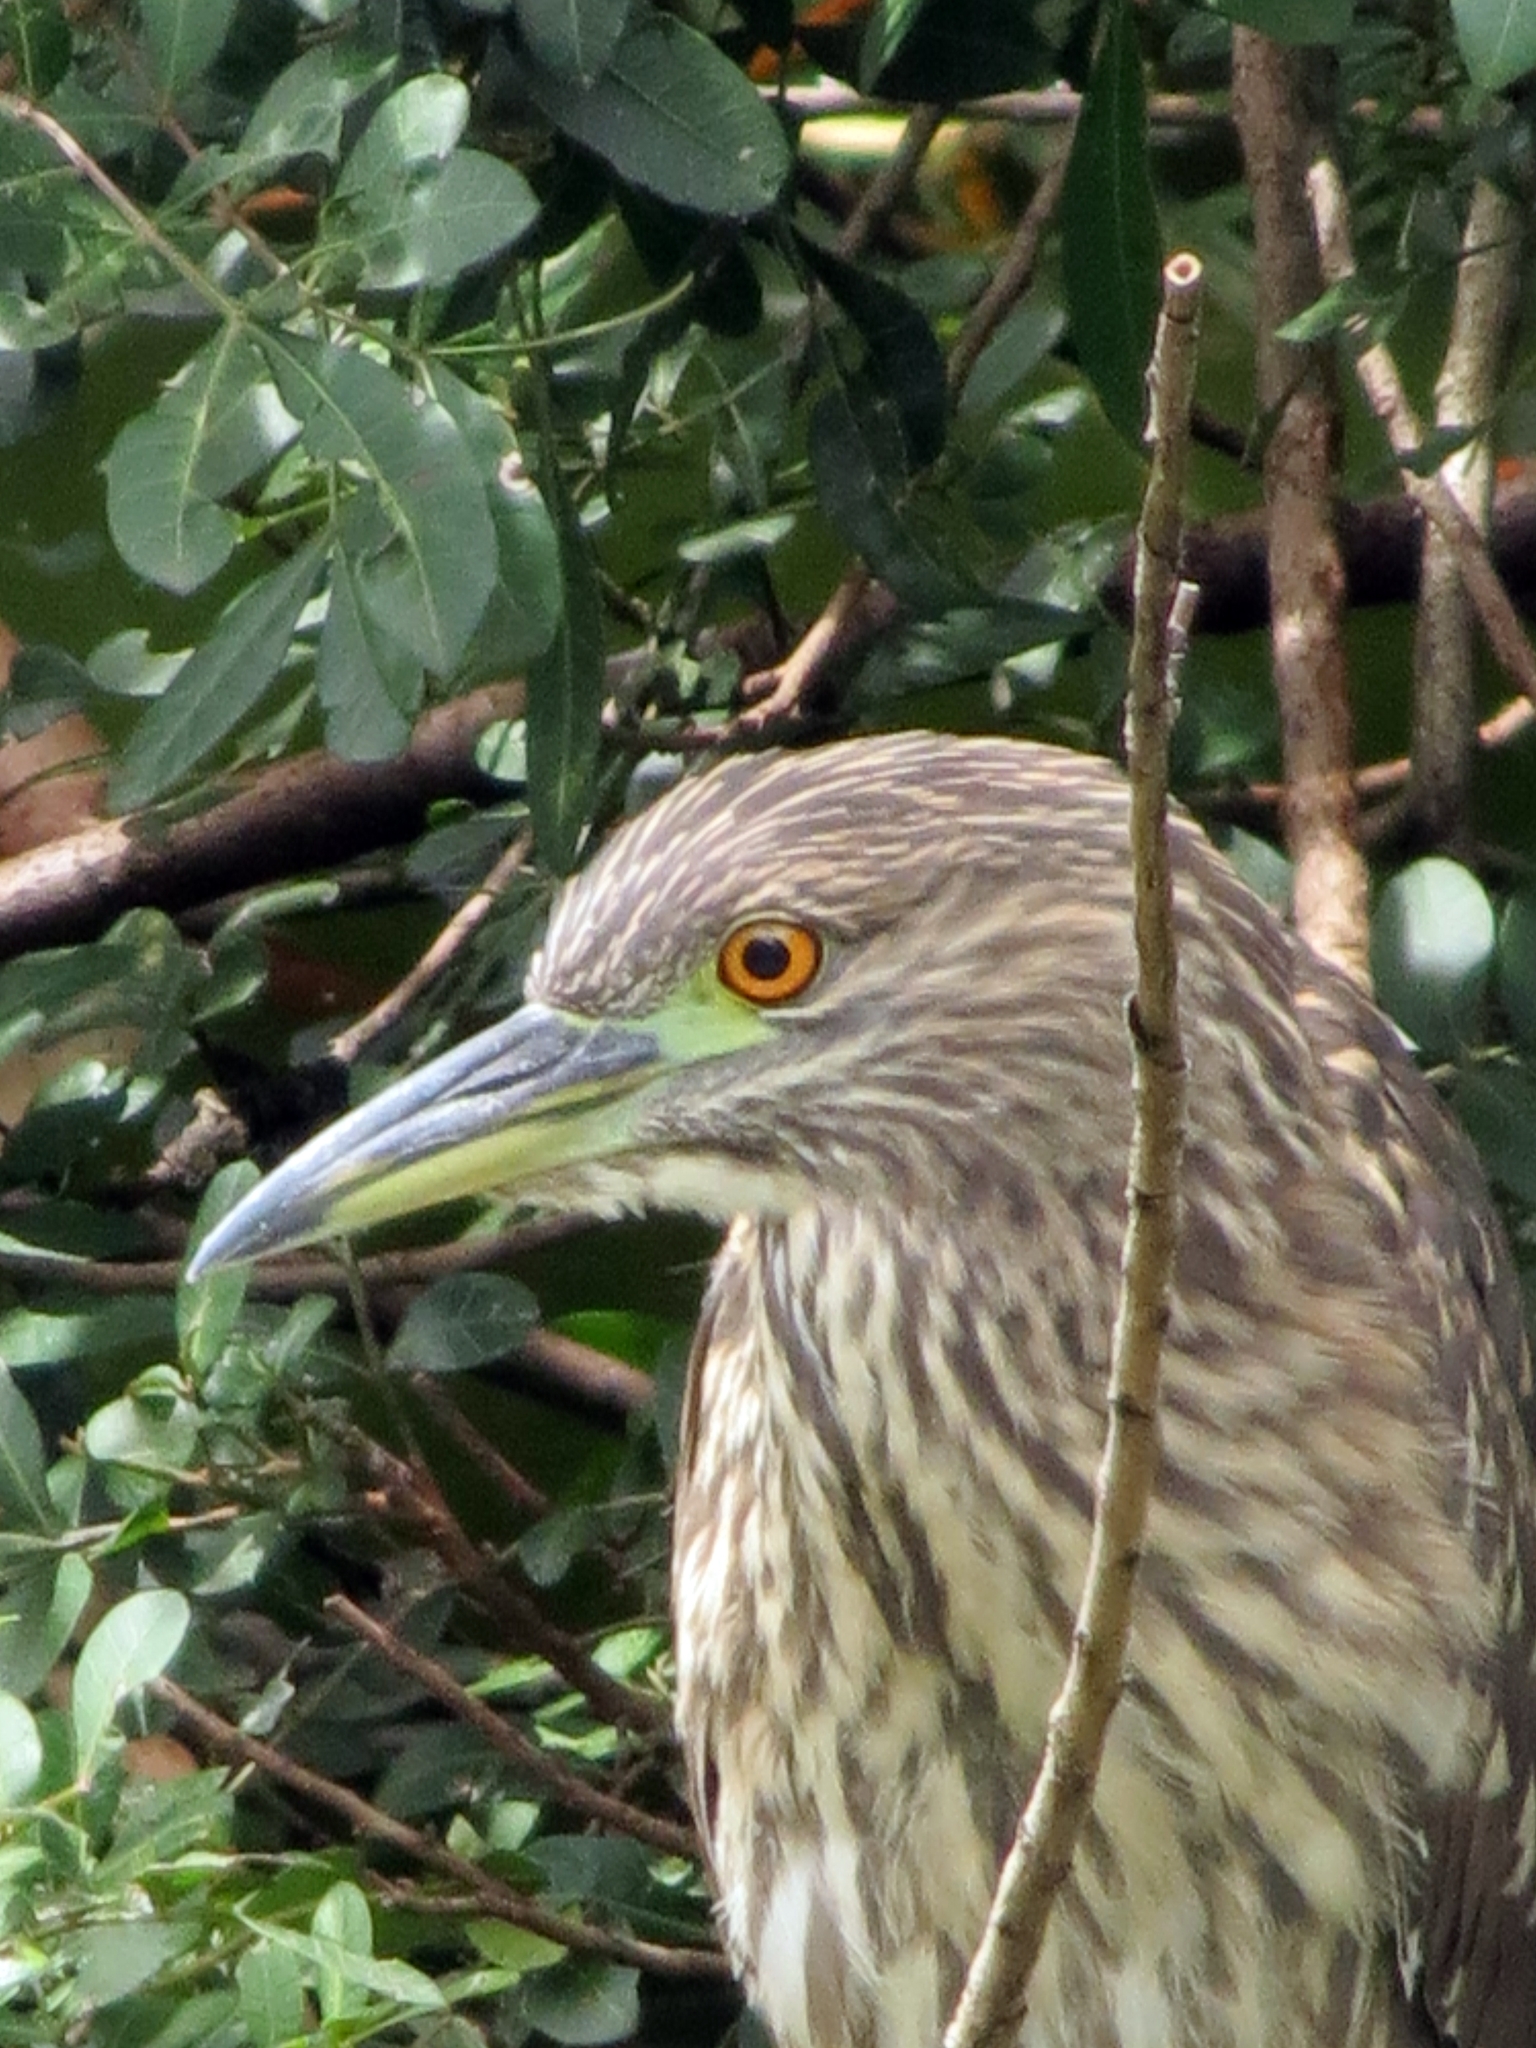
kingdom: Animalia
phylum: Chordata
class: Aves
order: Pelecaniformes
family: Ardeidae
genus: Nycticorax
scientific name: Nycticorax nycticorax
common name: Black-crowned night heron
